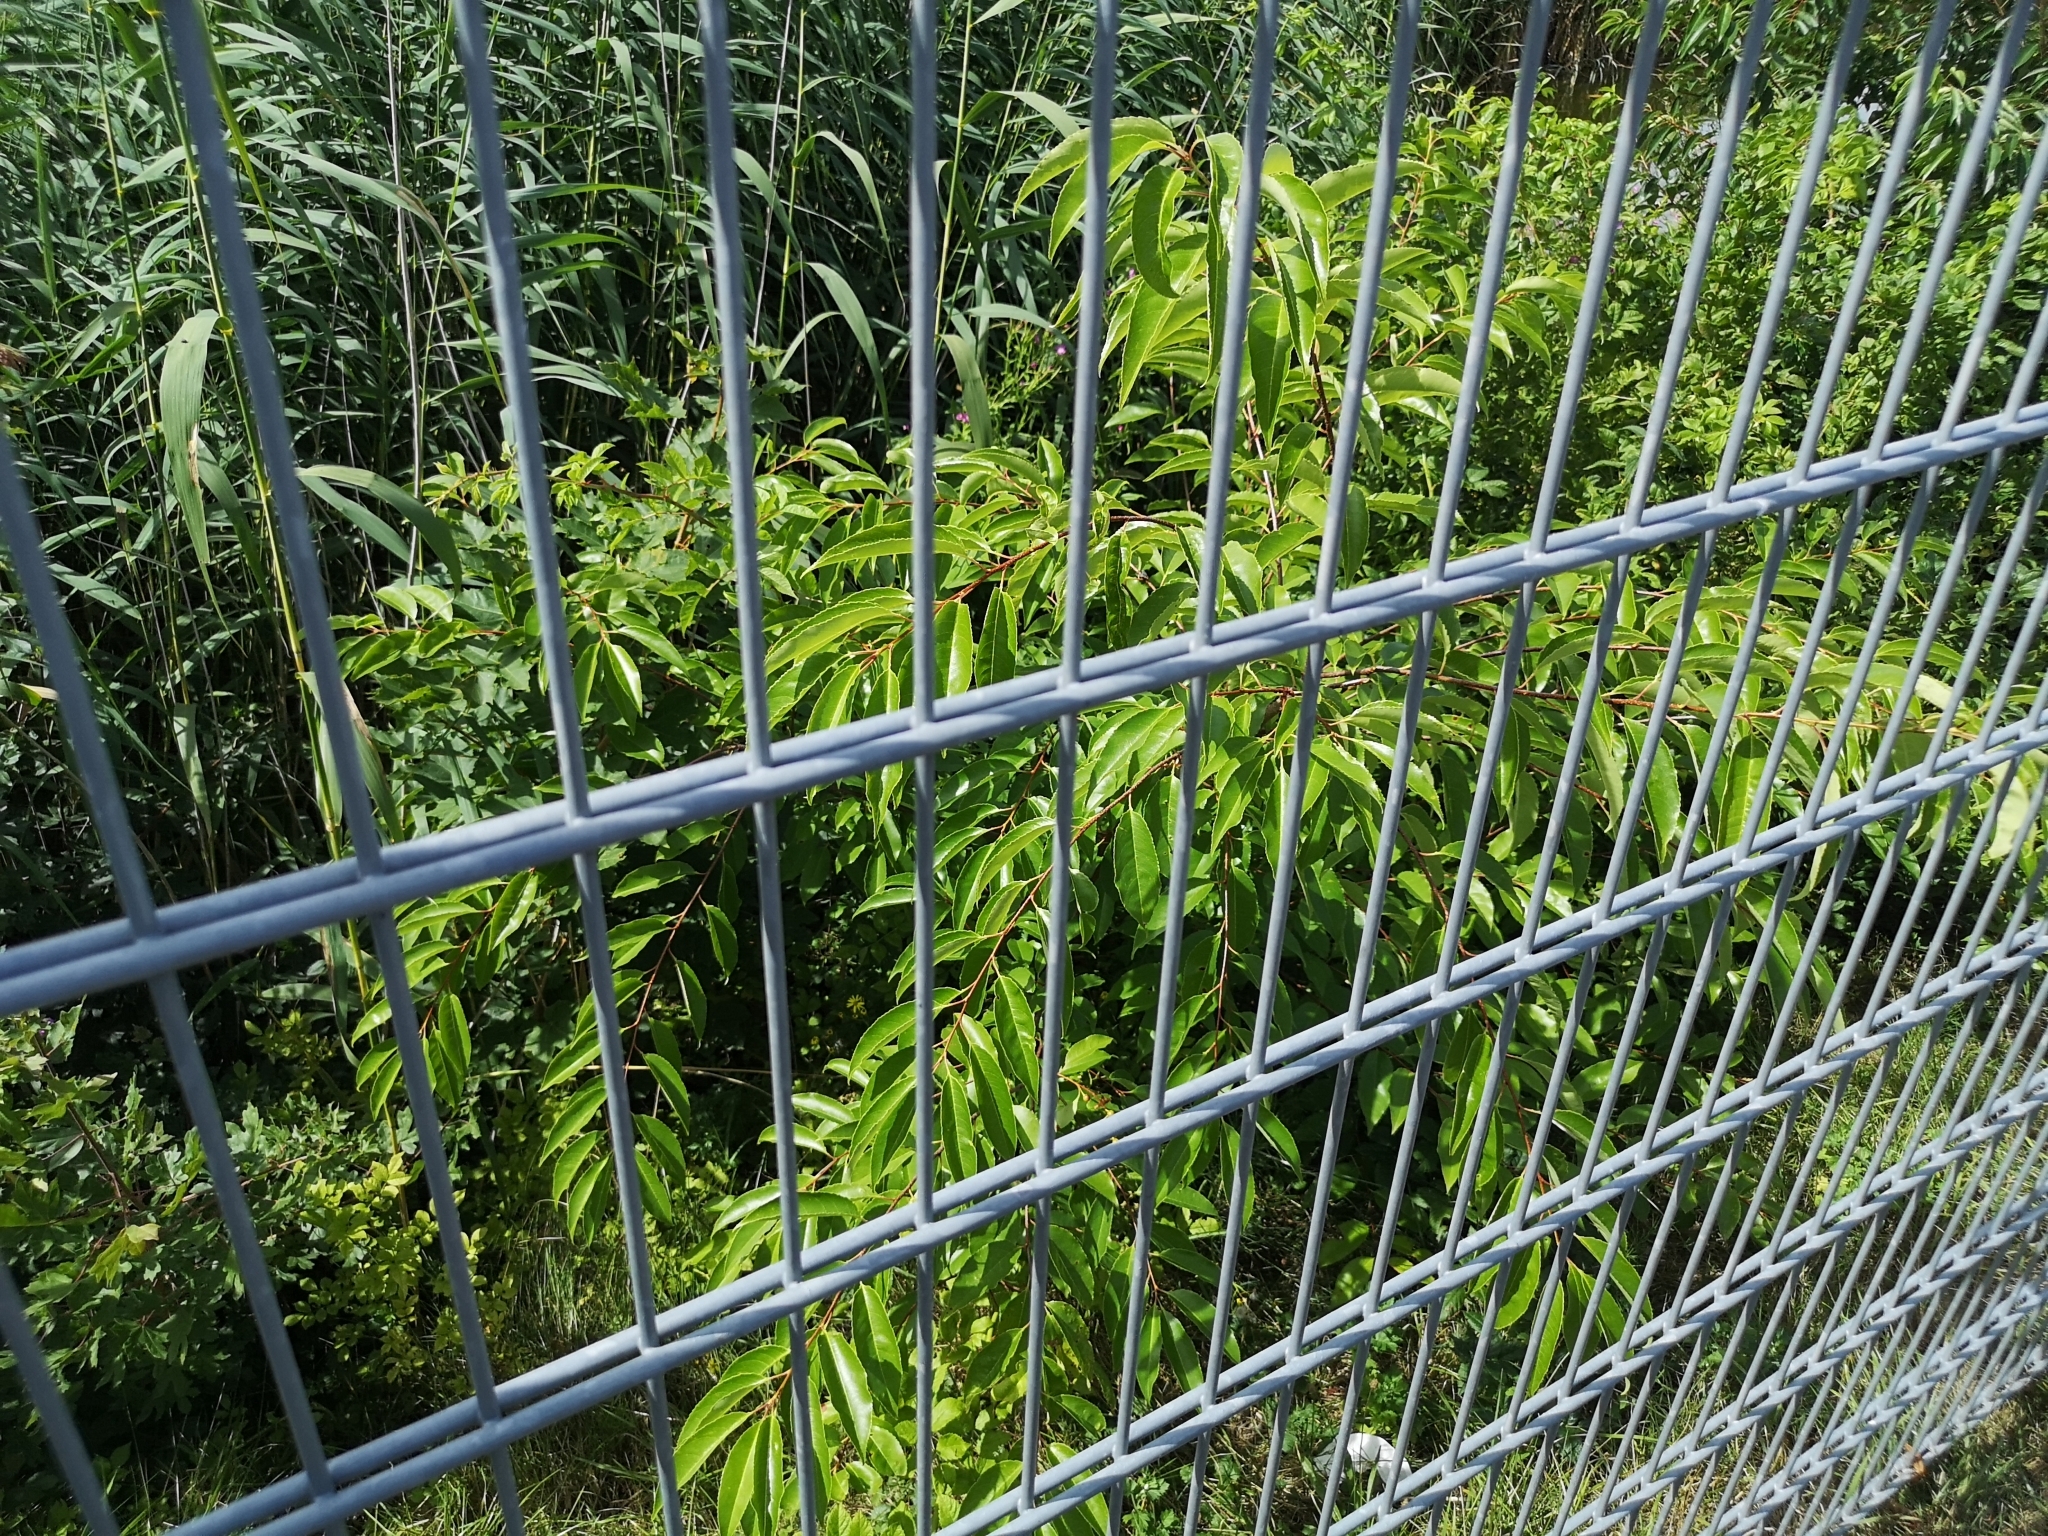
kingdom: Plantae
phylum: Tracheophyta
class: Magnoliopsida
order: Rosales
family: Rosaceae
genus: Prunus
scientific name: Prunus serotina
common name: Black cherry
